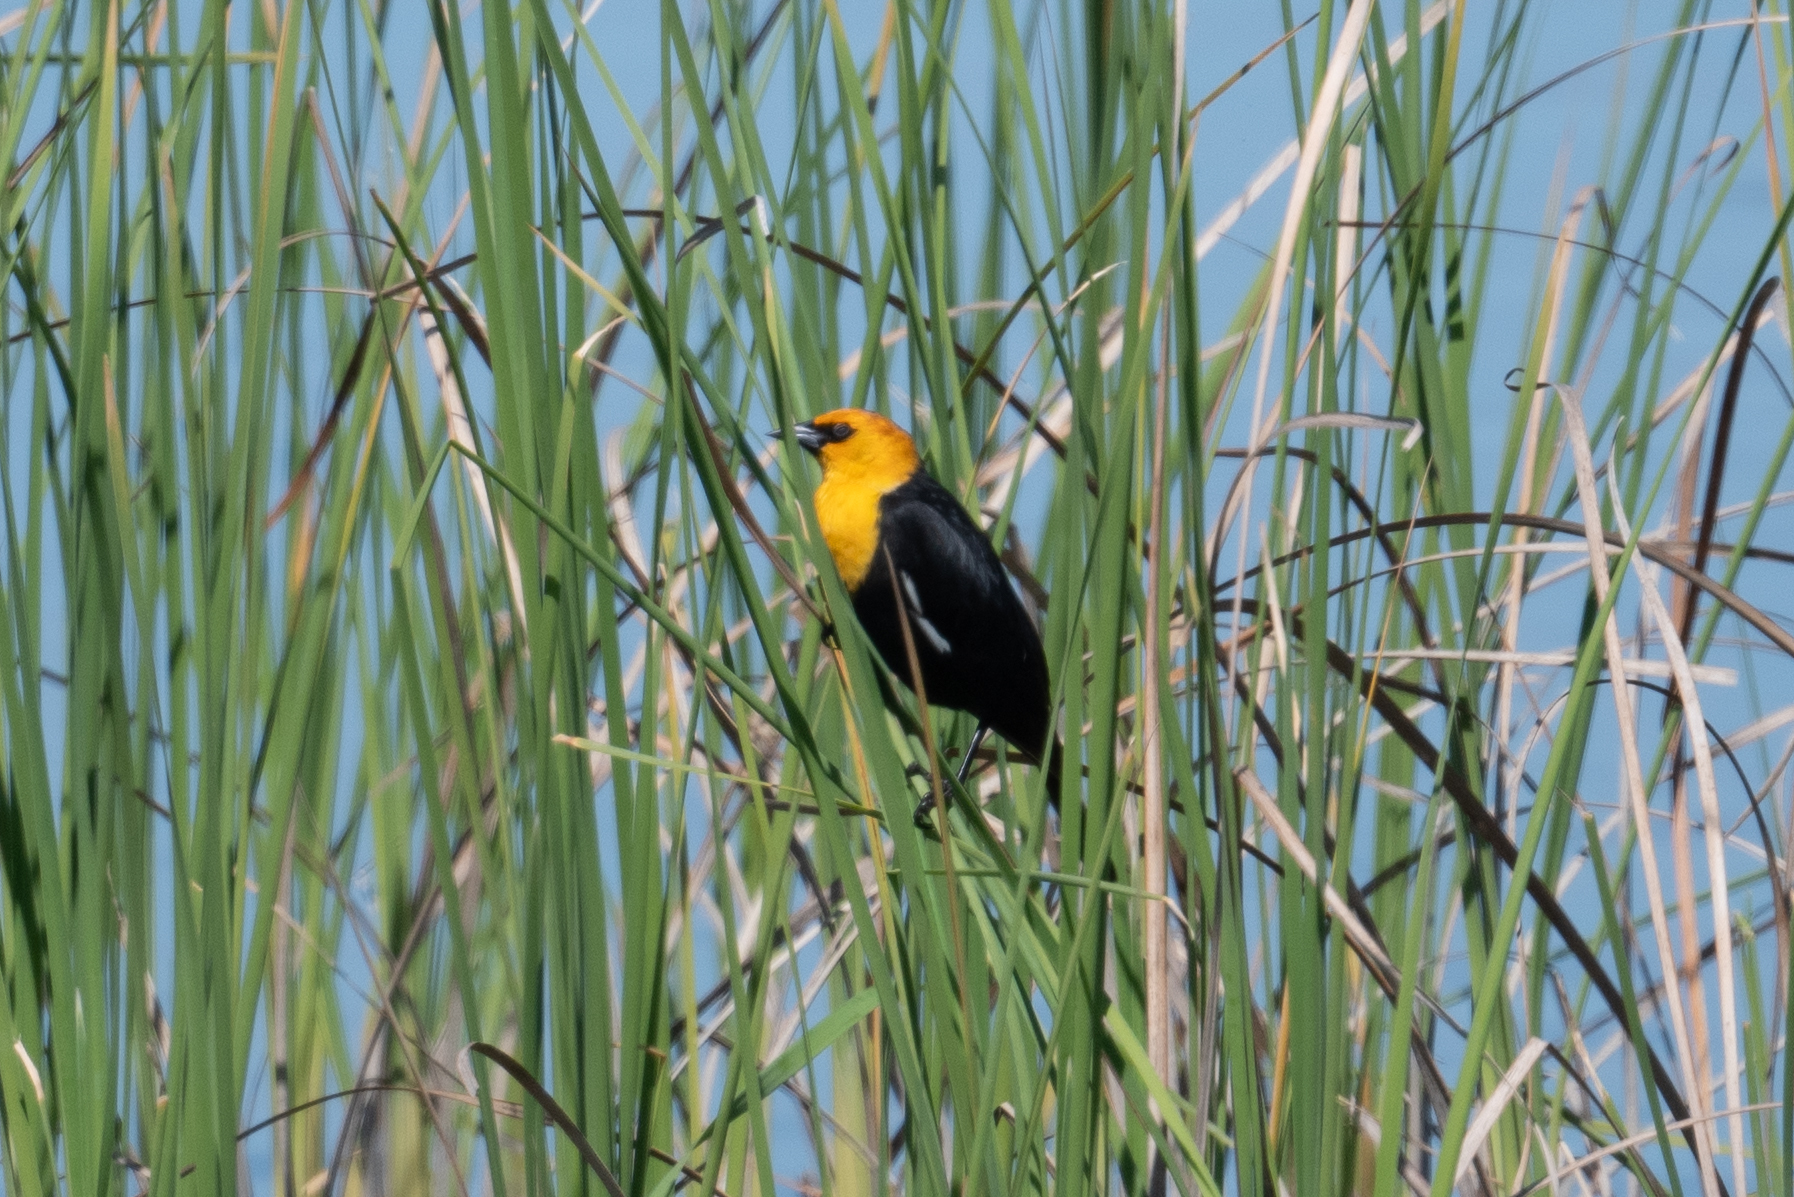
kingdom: Animalia
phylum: Chordata
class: Aves
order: Passeriformes
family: Icteridae
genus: Xanthocephalus
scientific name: Xanthocephalus xanthocephalus
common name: Yellow-headed blackbird
